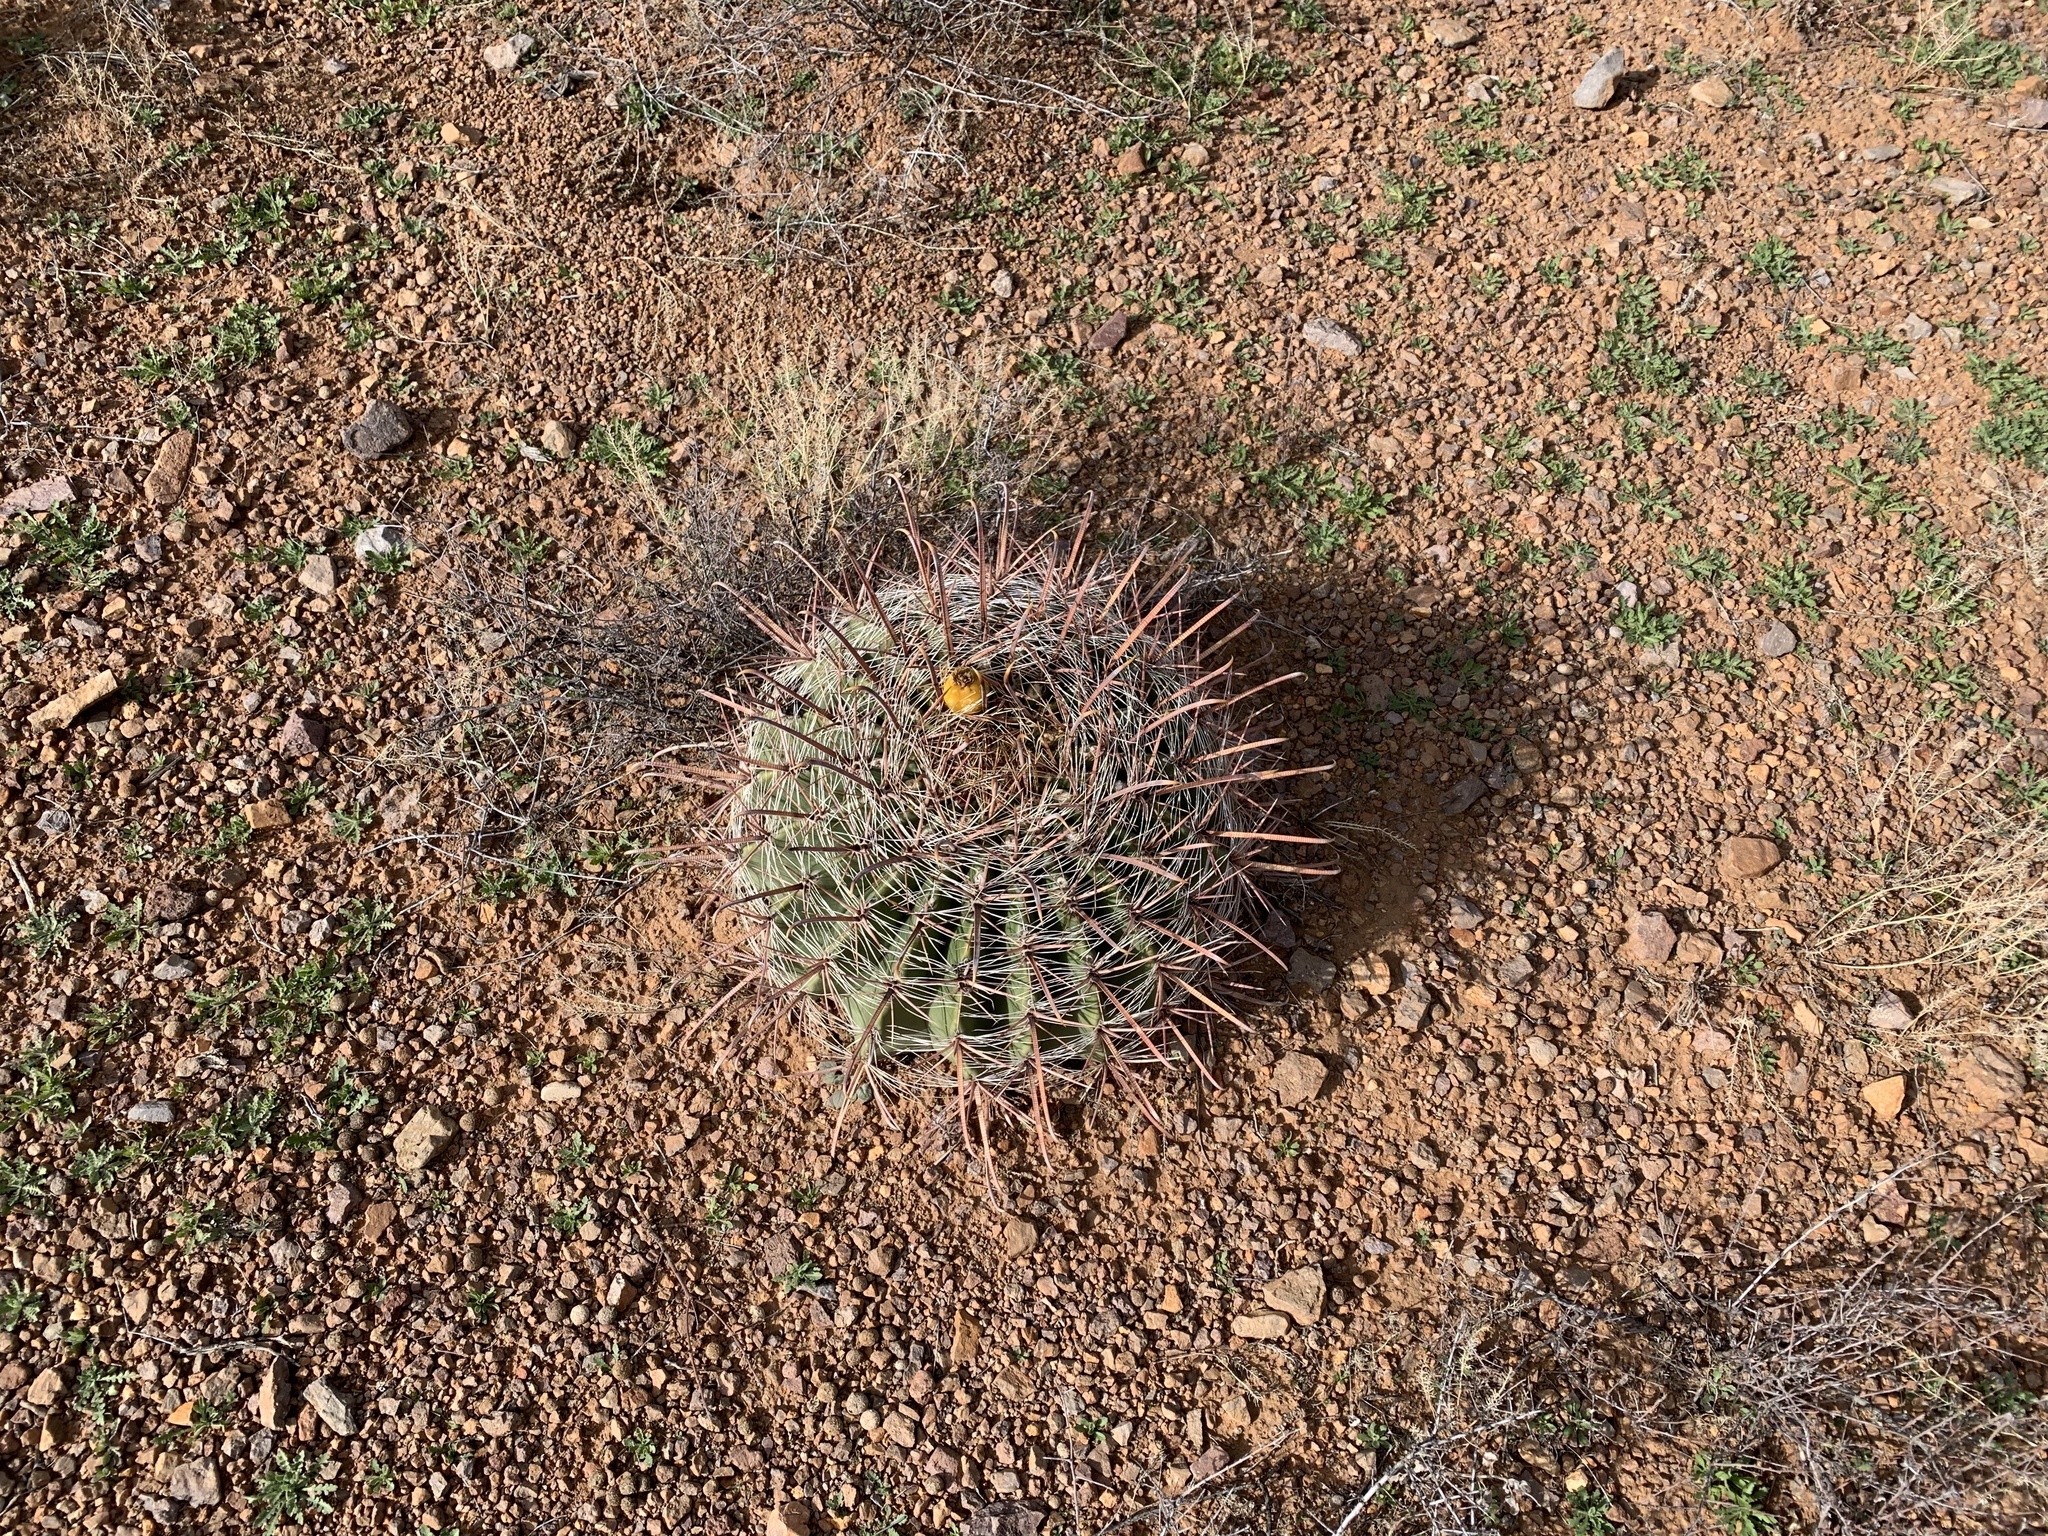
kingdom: Plantae
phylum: Tracheophyta
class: Magnoliopsida
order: Caryophyllales
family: Cactaceae
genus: Ferocactus
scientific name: Ferocactus wislizeni
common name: Candy barrel cactus
